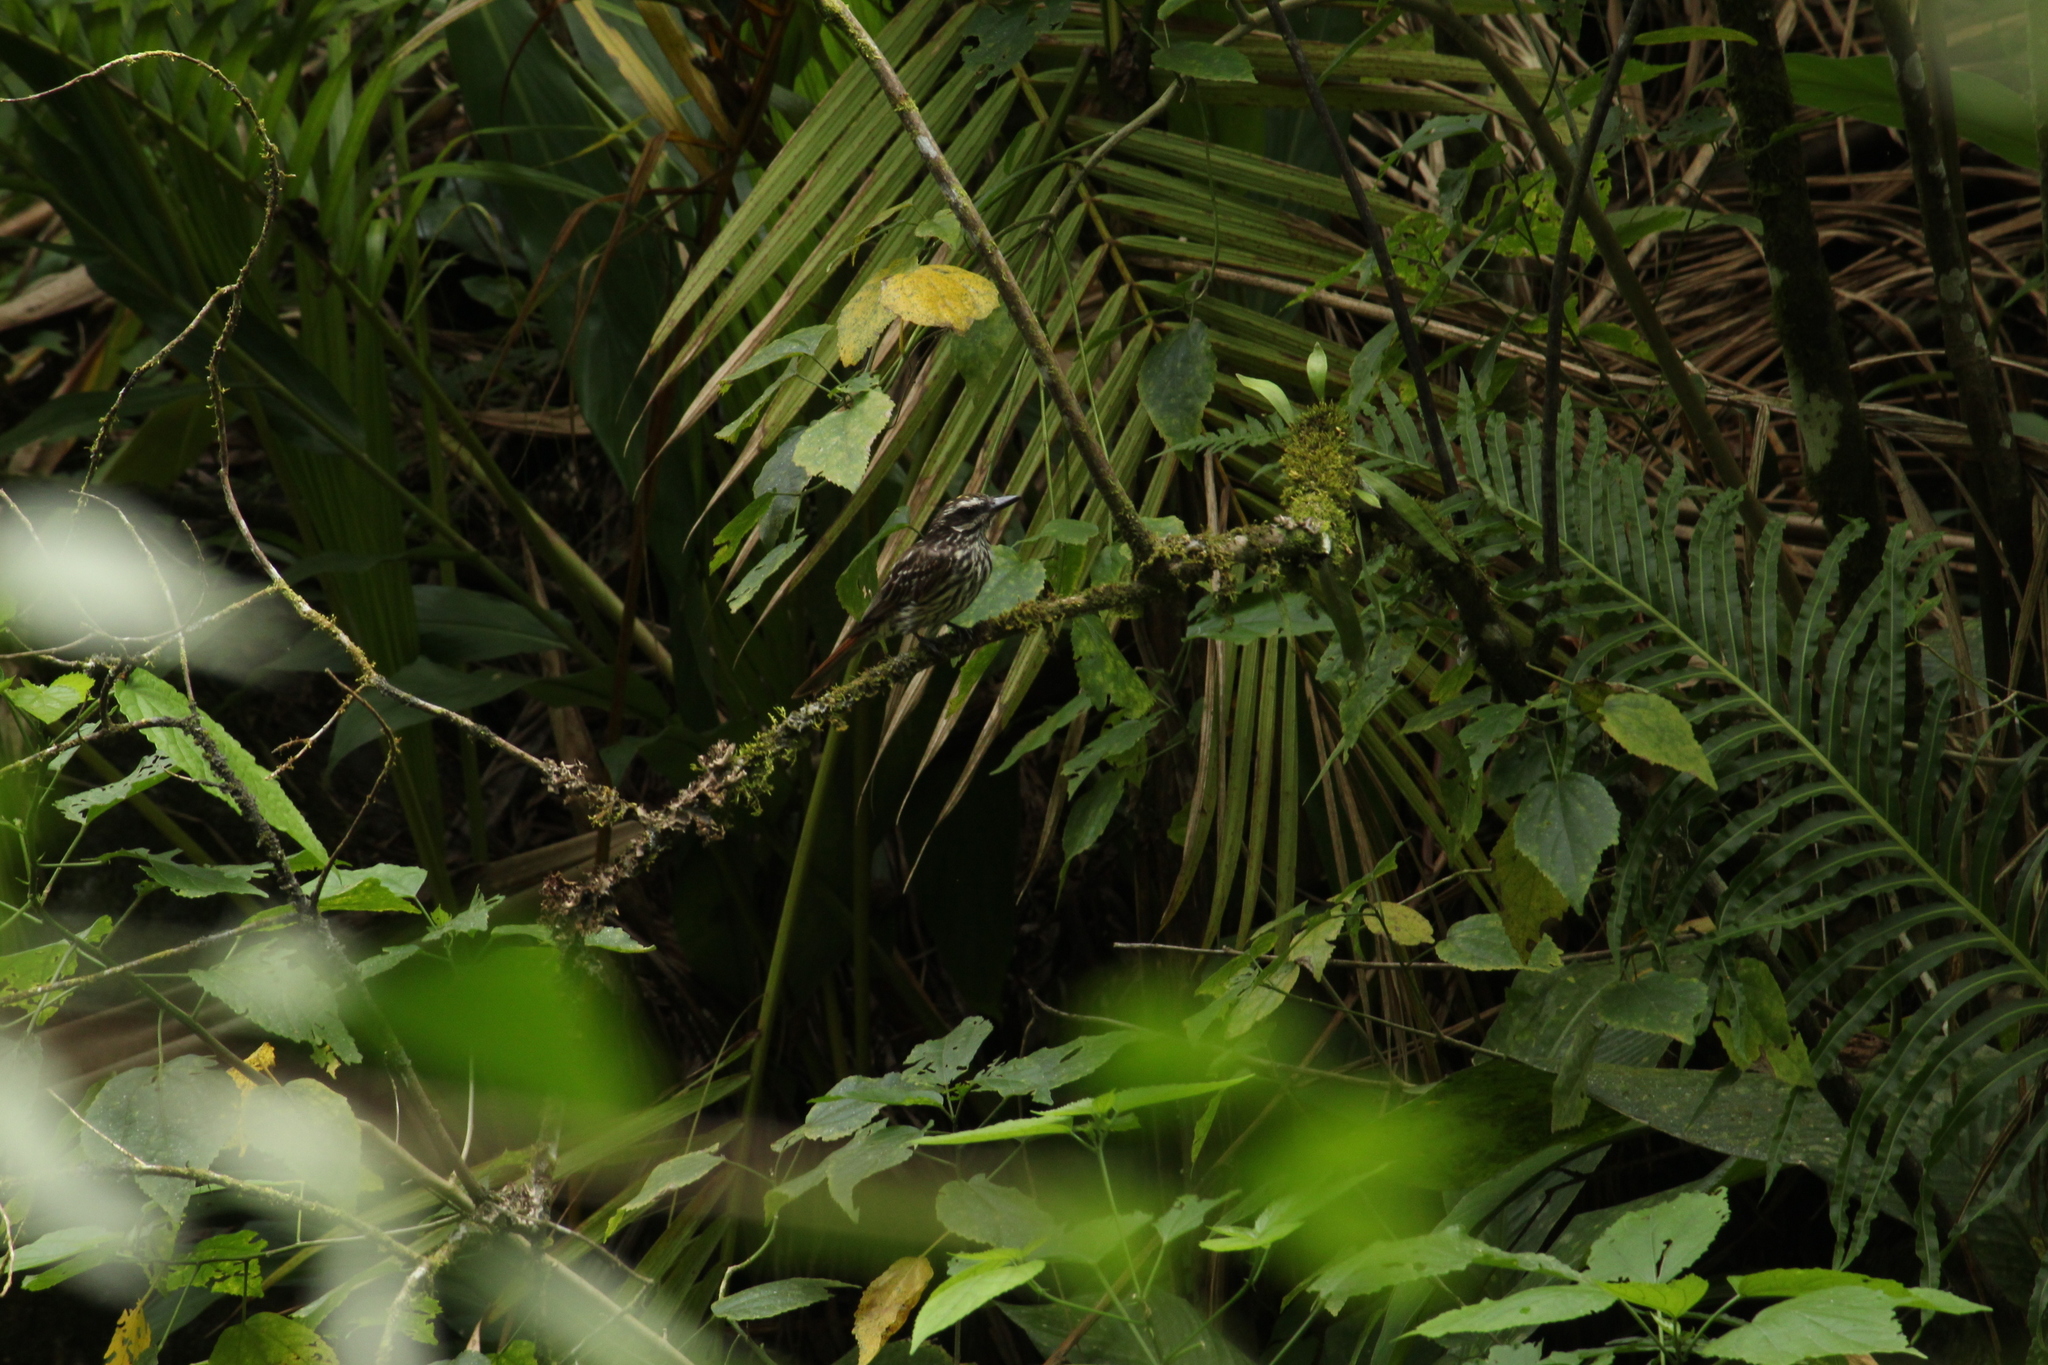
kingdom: Animalia
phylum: Chordata
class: Aves
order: Passeriformes
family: Tyrannidae
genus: Myiodynastes
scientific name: Myiodynastes maculatus
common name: Streaked flycatcher
